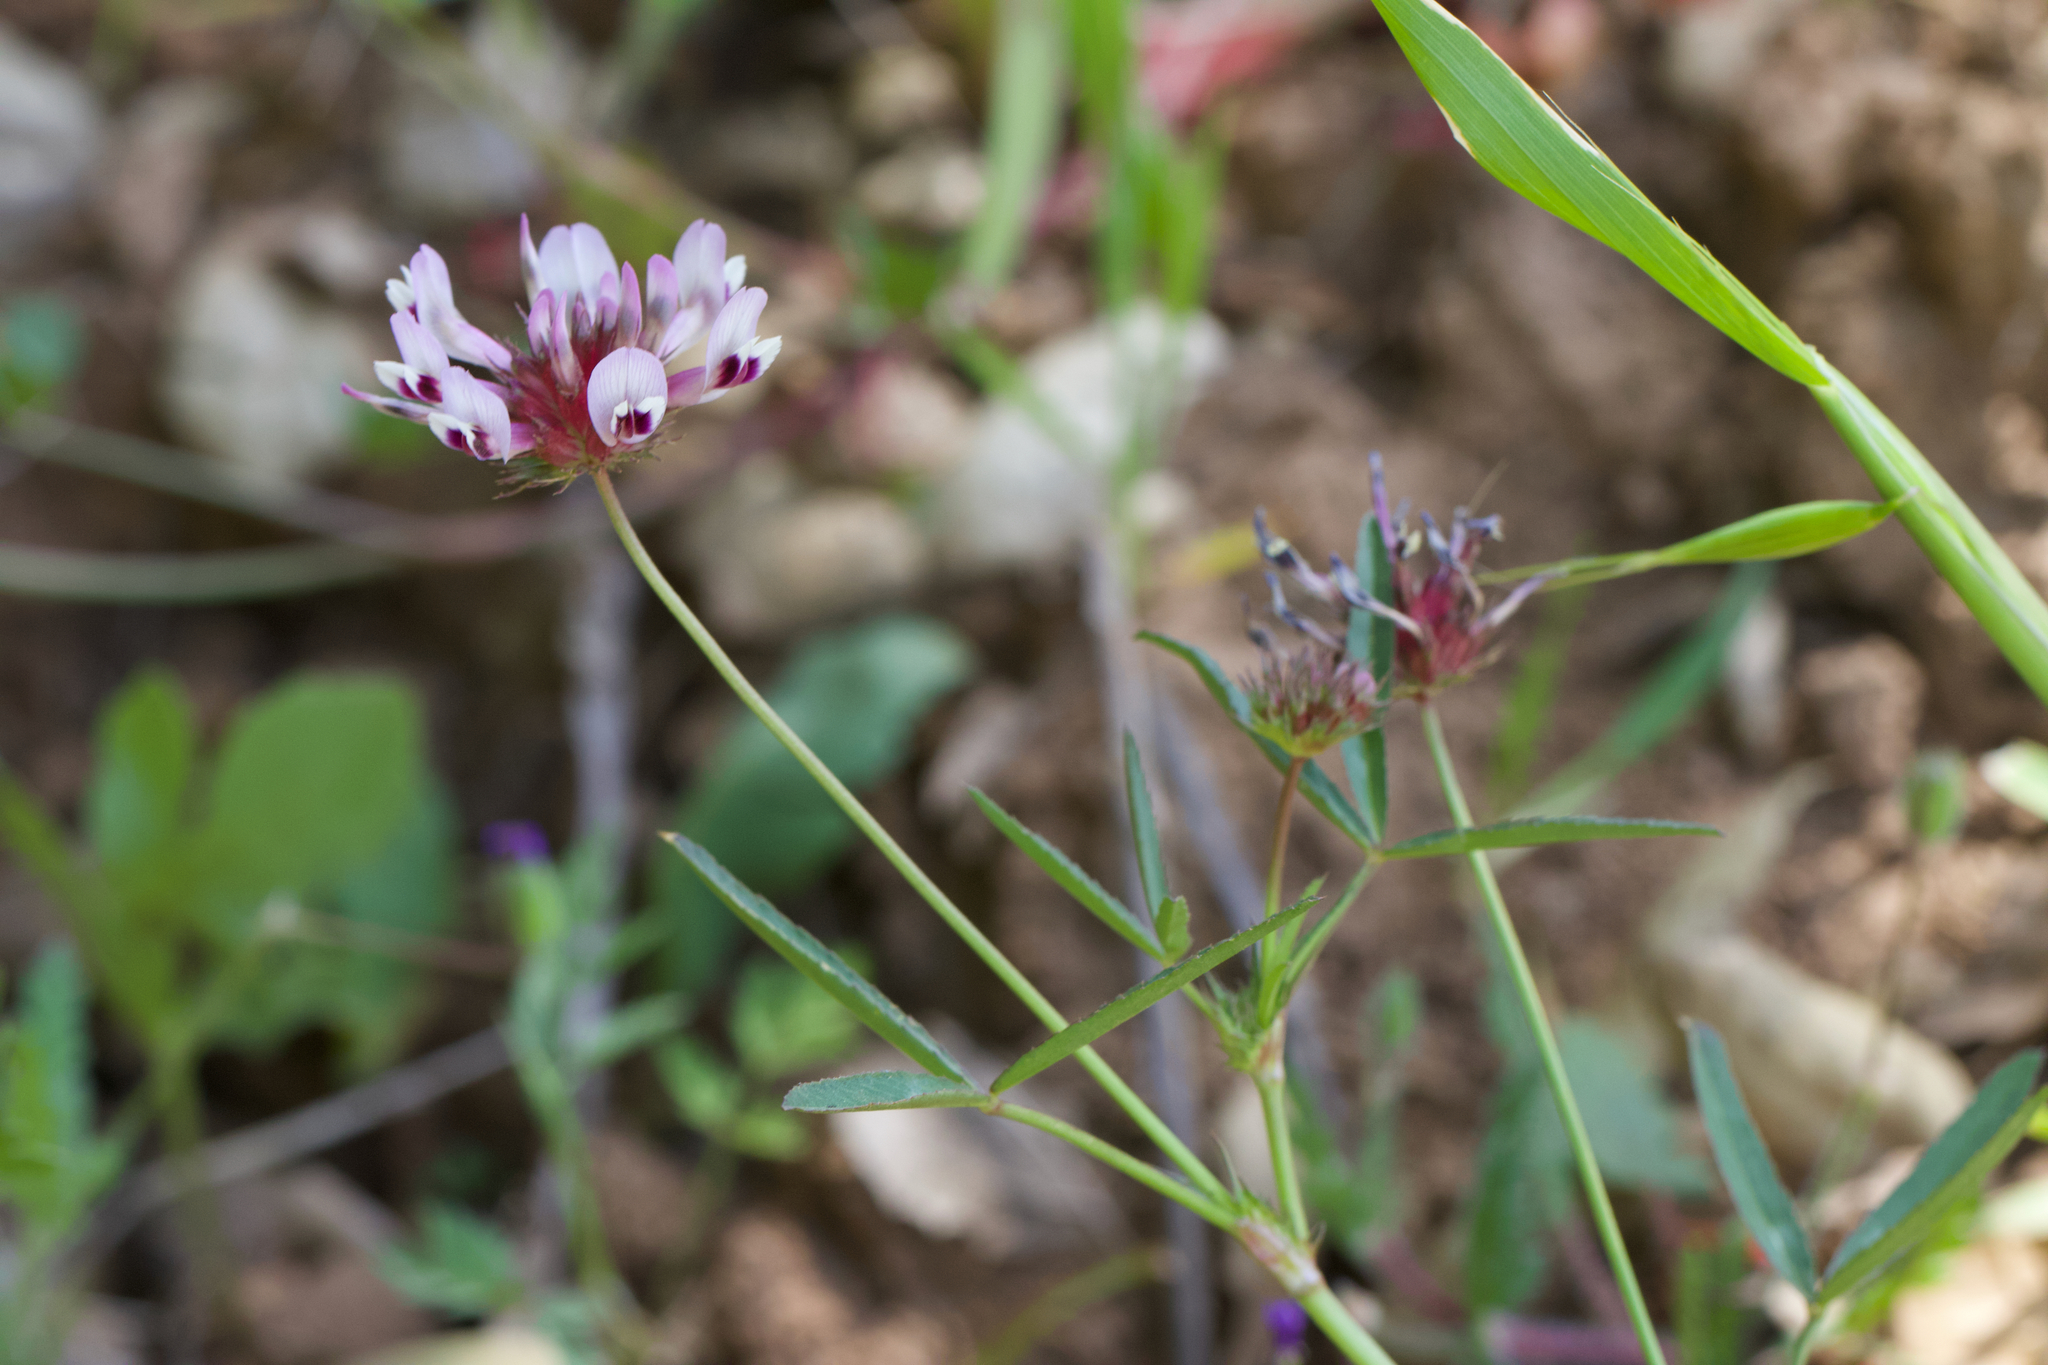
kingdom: Plantae
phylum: Tracheophyta
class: Magnoliopsida
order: Fabales
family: Fabaceae
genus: Trifolium
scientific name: Trifolium willdenovii
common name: Tomcat clover
